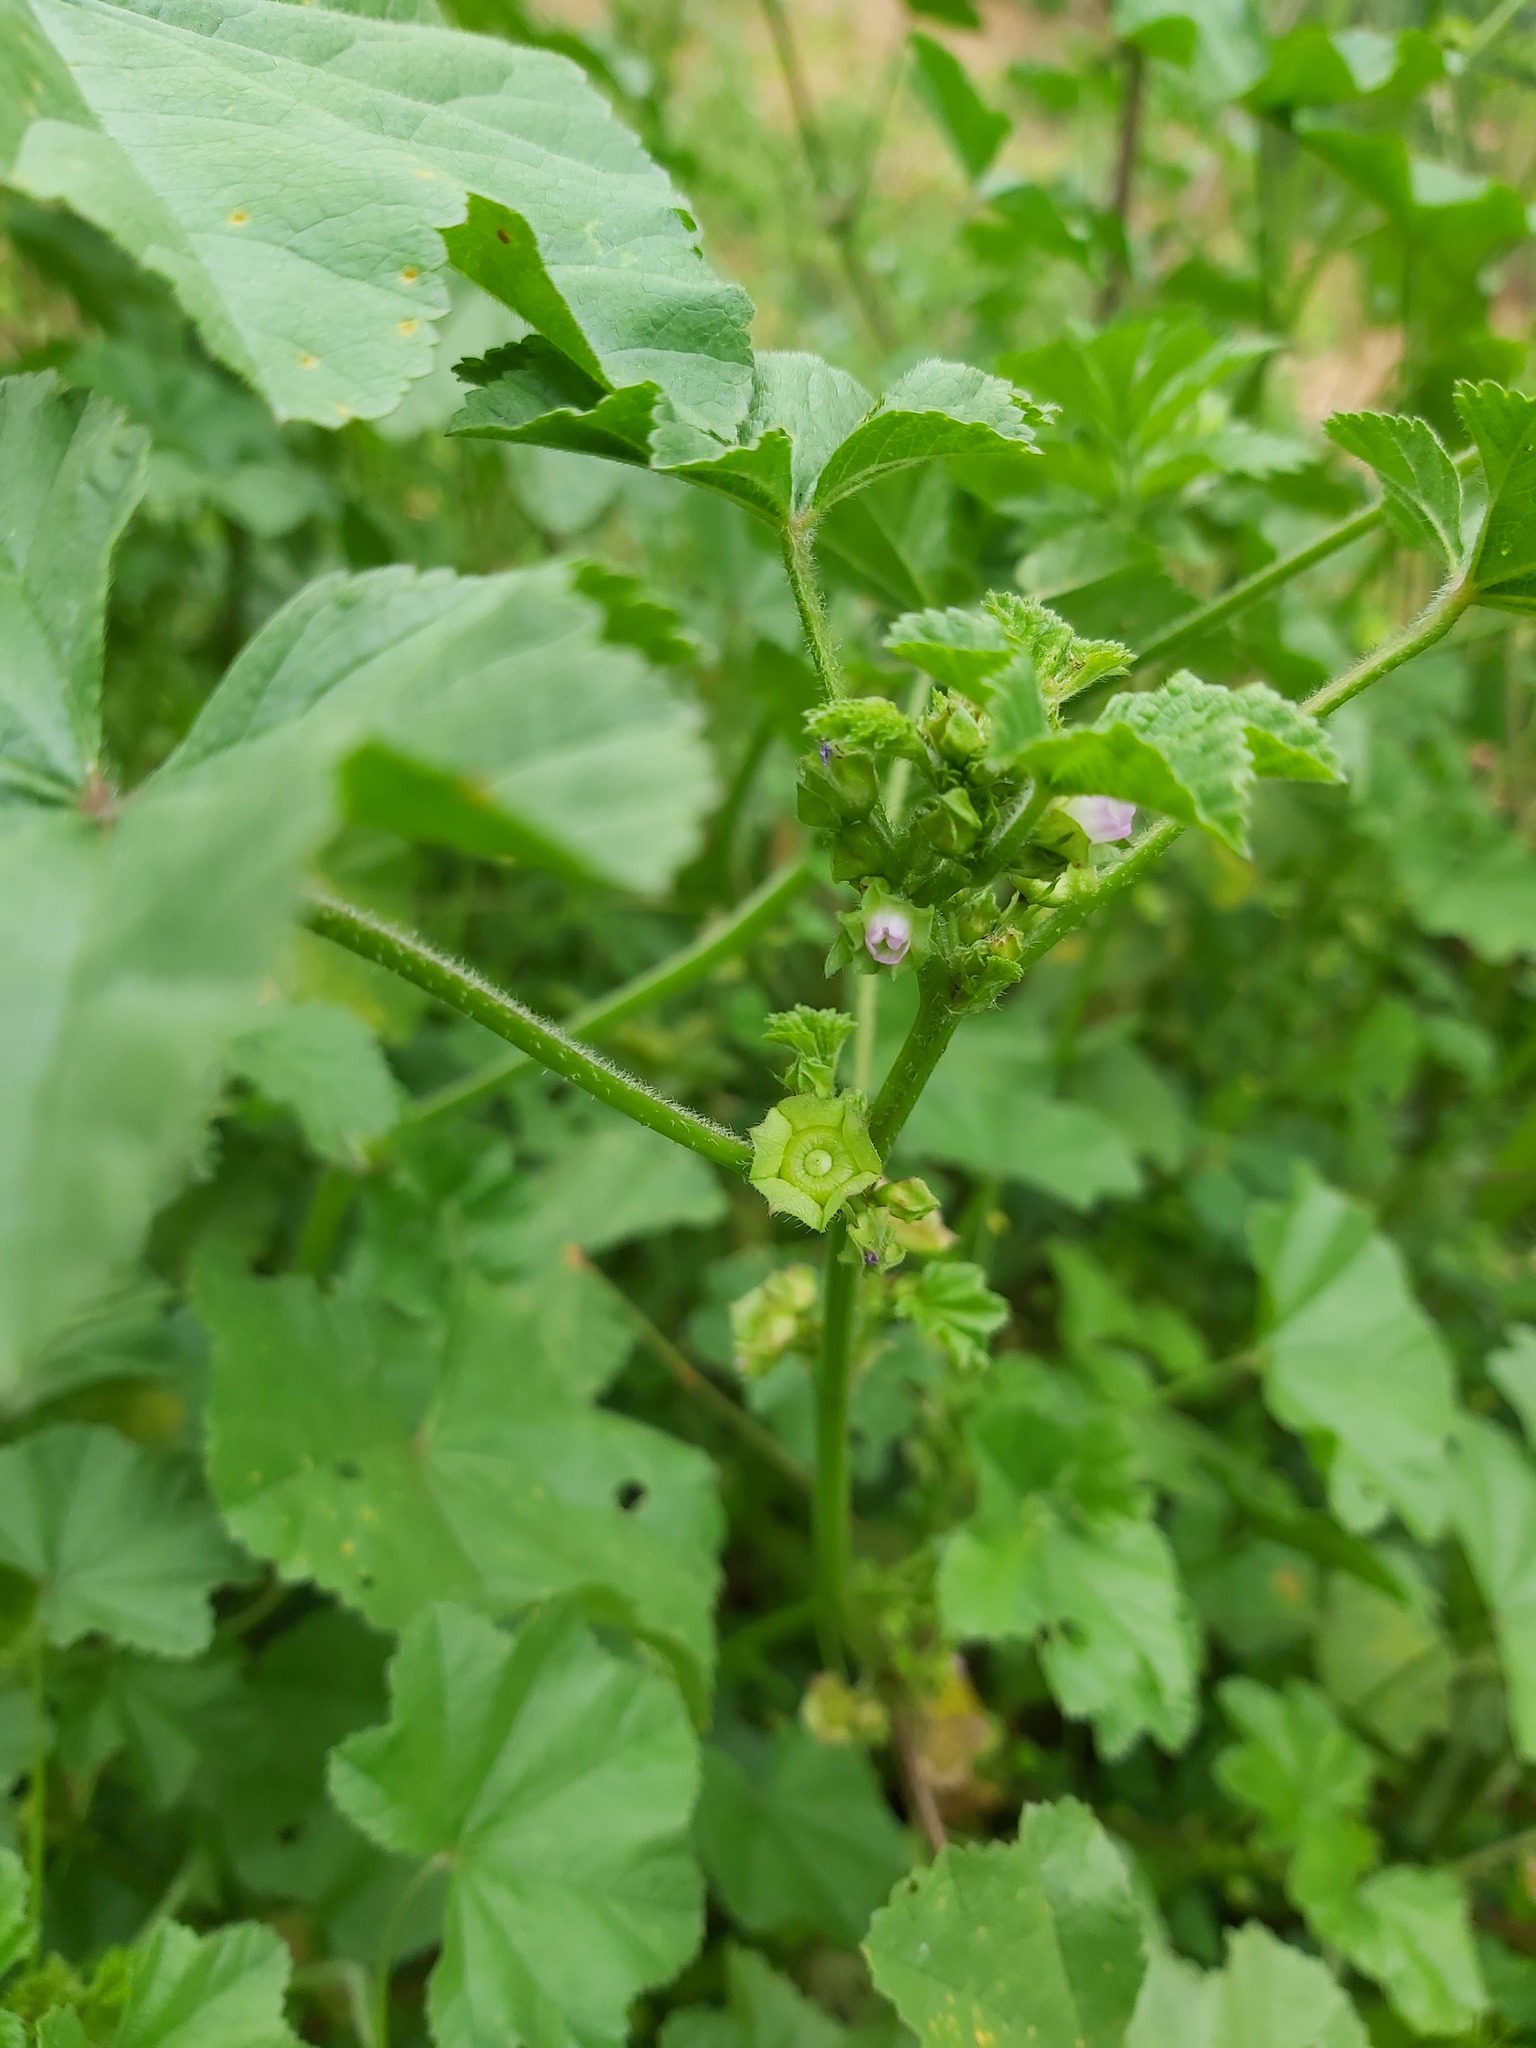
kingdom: Plantae
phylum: Tracheophyta
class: Magnoliopsida
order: Malvales
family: Malvaceae
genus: Malva
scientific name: Malva parviflora
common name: Least mallow
